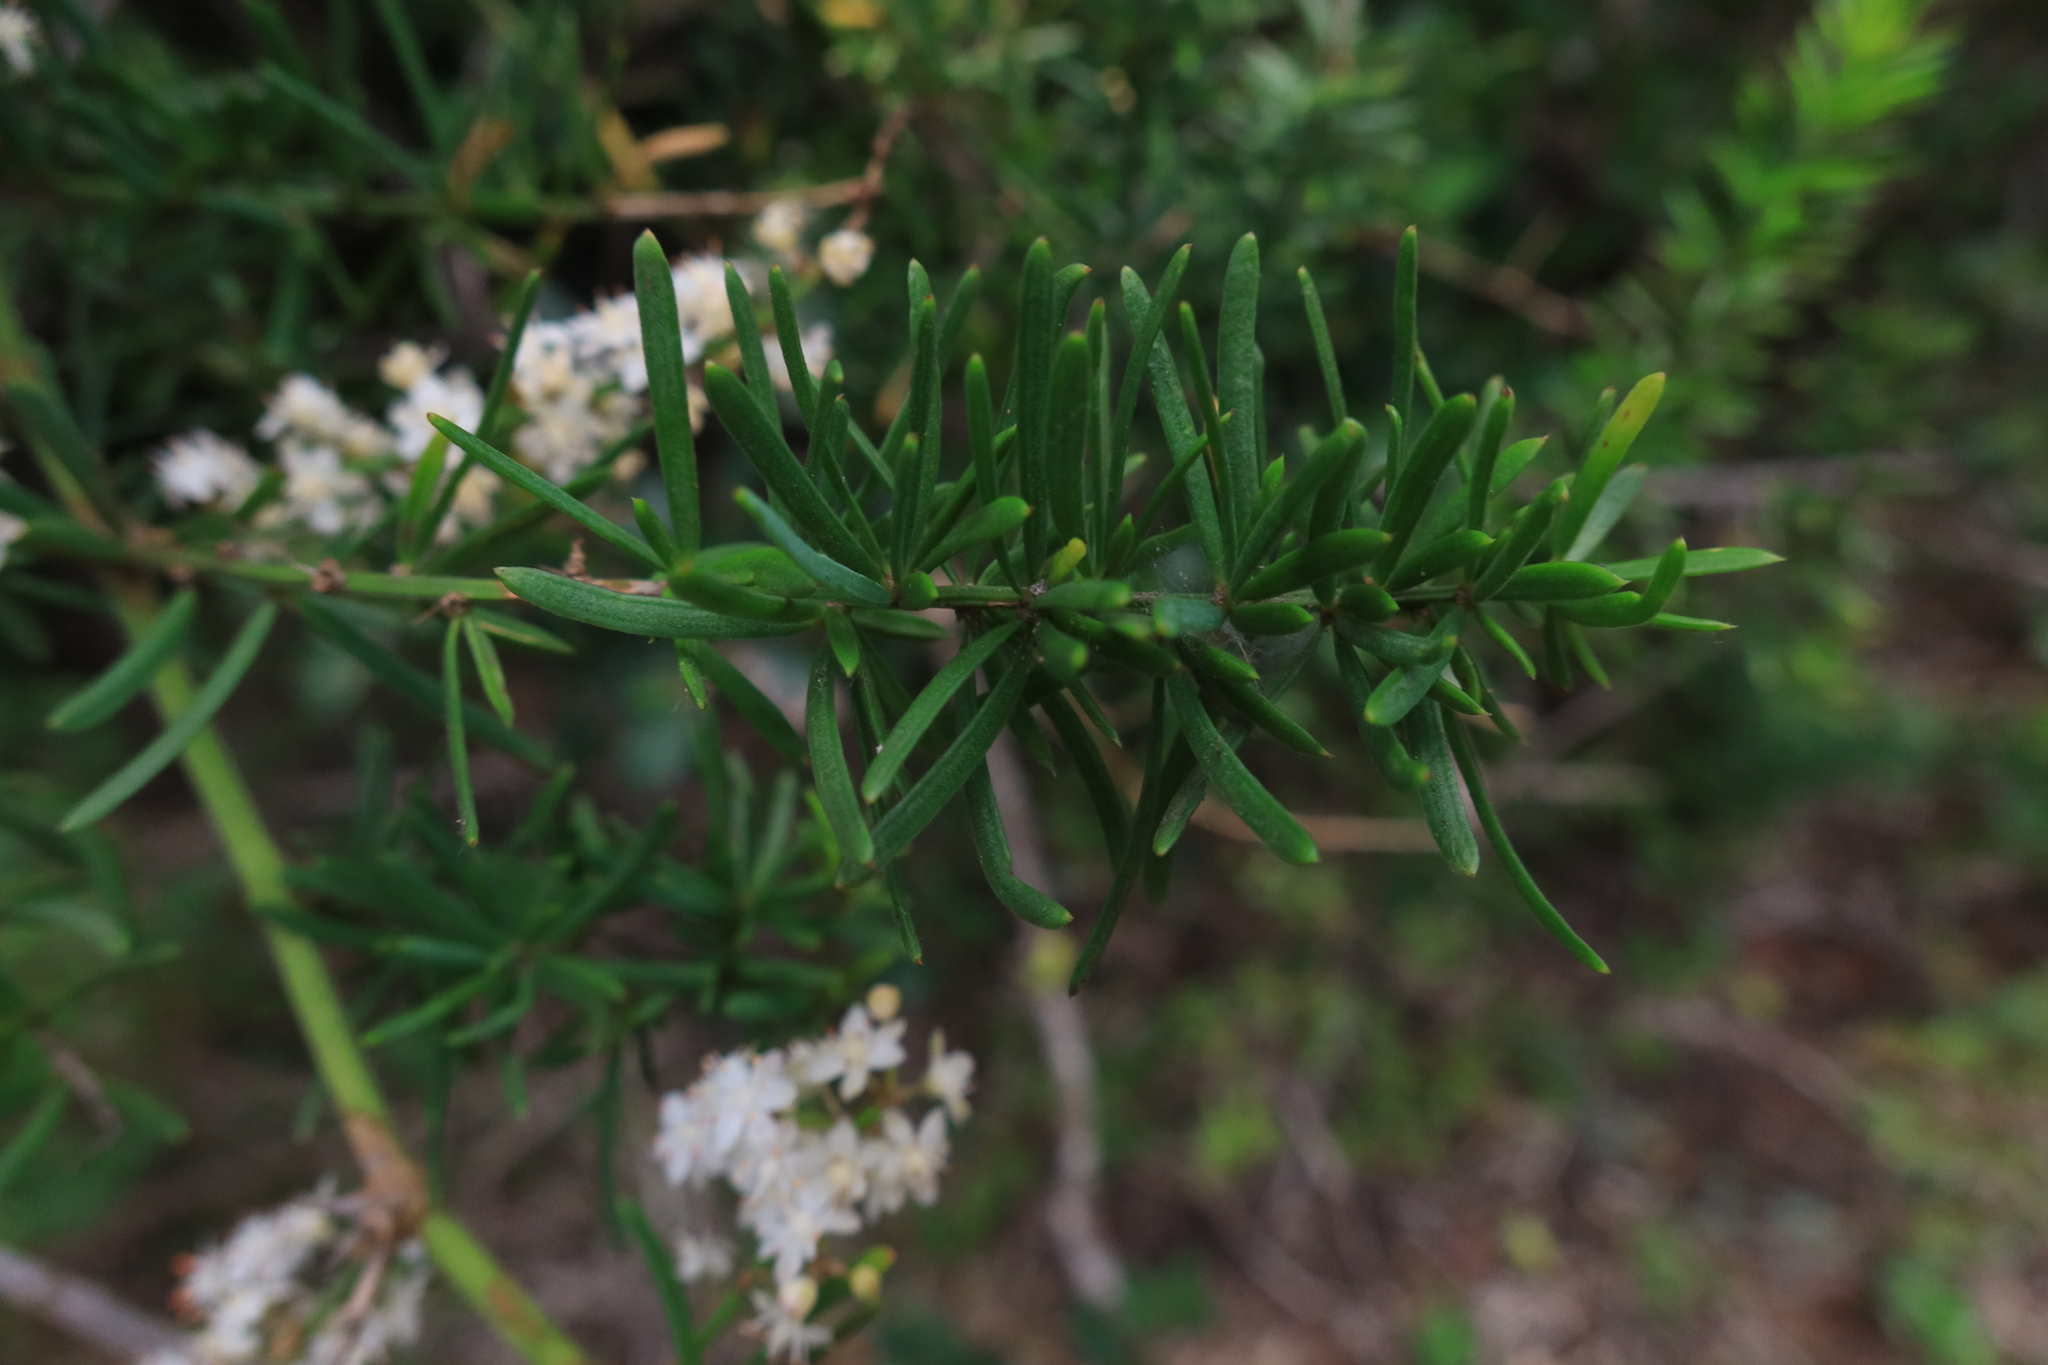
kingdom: Plantae
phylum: Tracheophyta
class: Liliopsida
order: Asparagales
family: Asparagaceae
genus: Asparagus
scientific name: Asparagus aethiopicus
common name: Sprenger's asparagus fern
